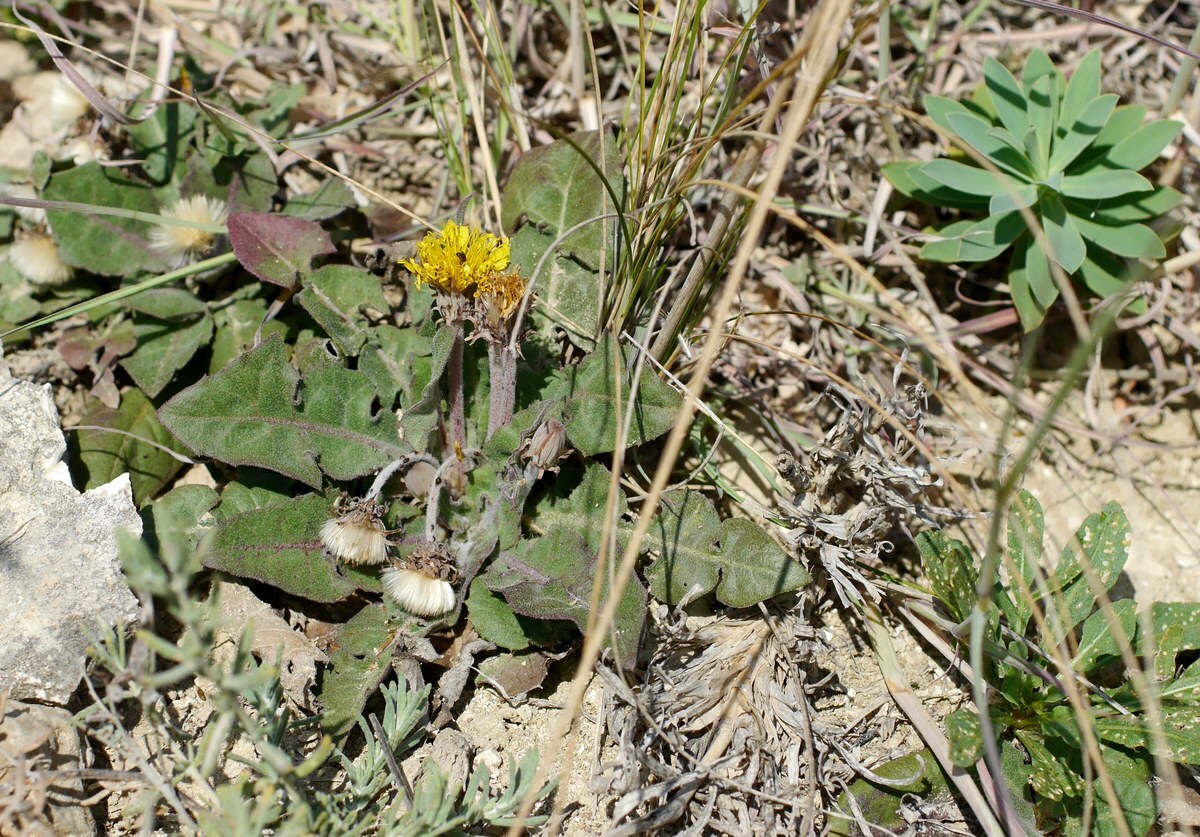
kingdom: Plantae
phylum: Tracheophyta
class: Magnoliopsida
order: Asterales
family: Asteraceae
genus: Taraxacum
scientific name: Taraxacum serotinum
